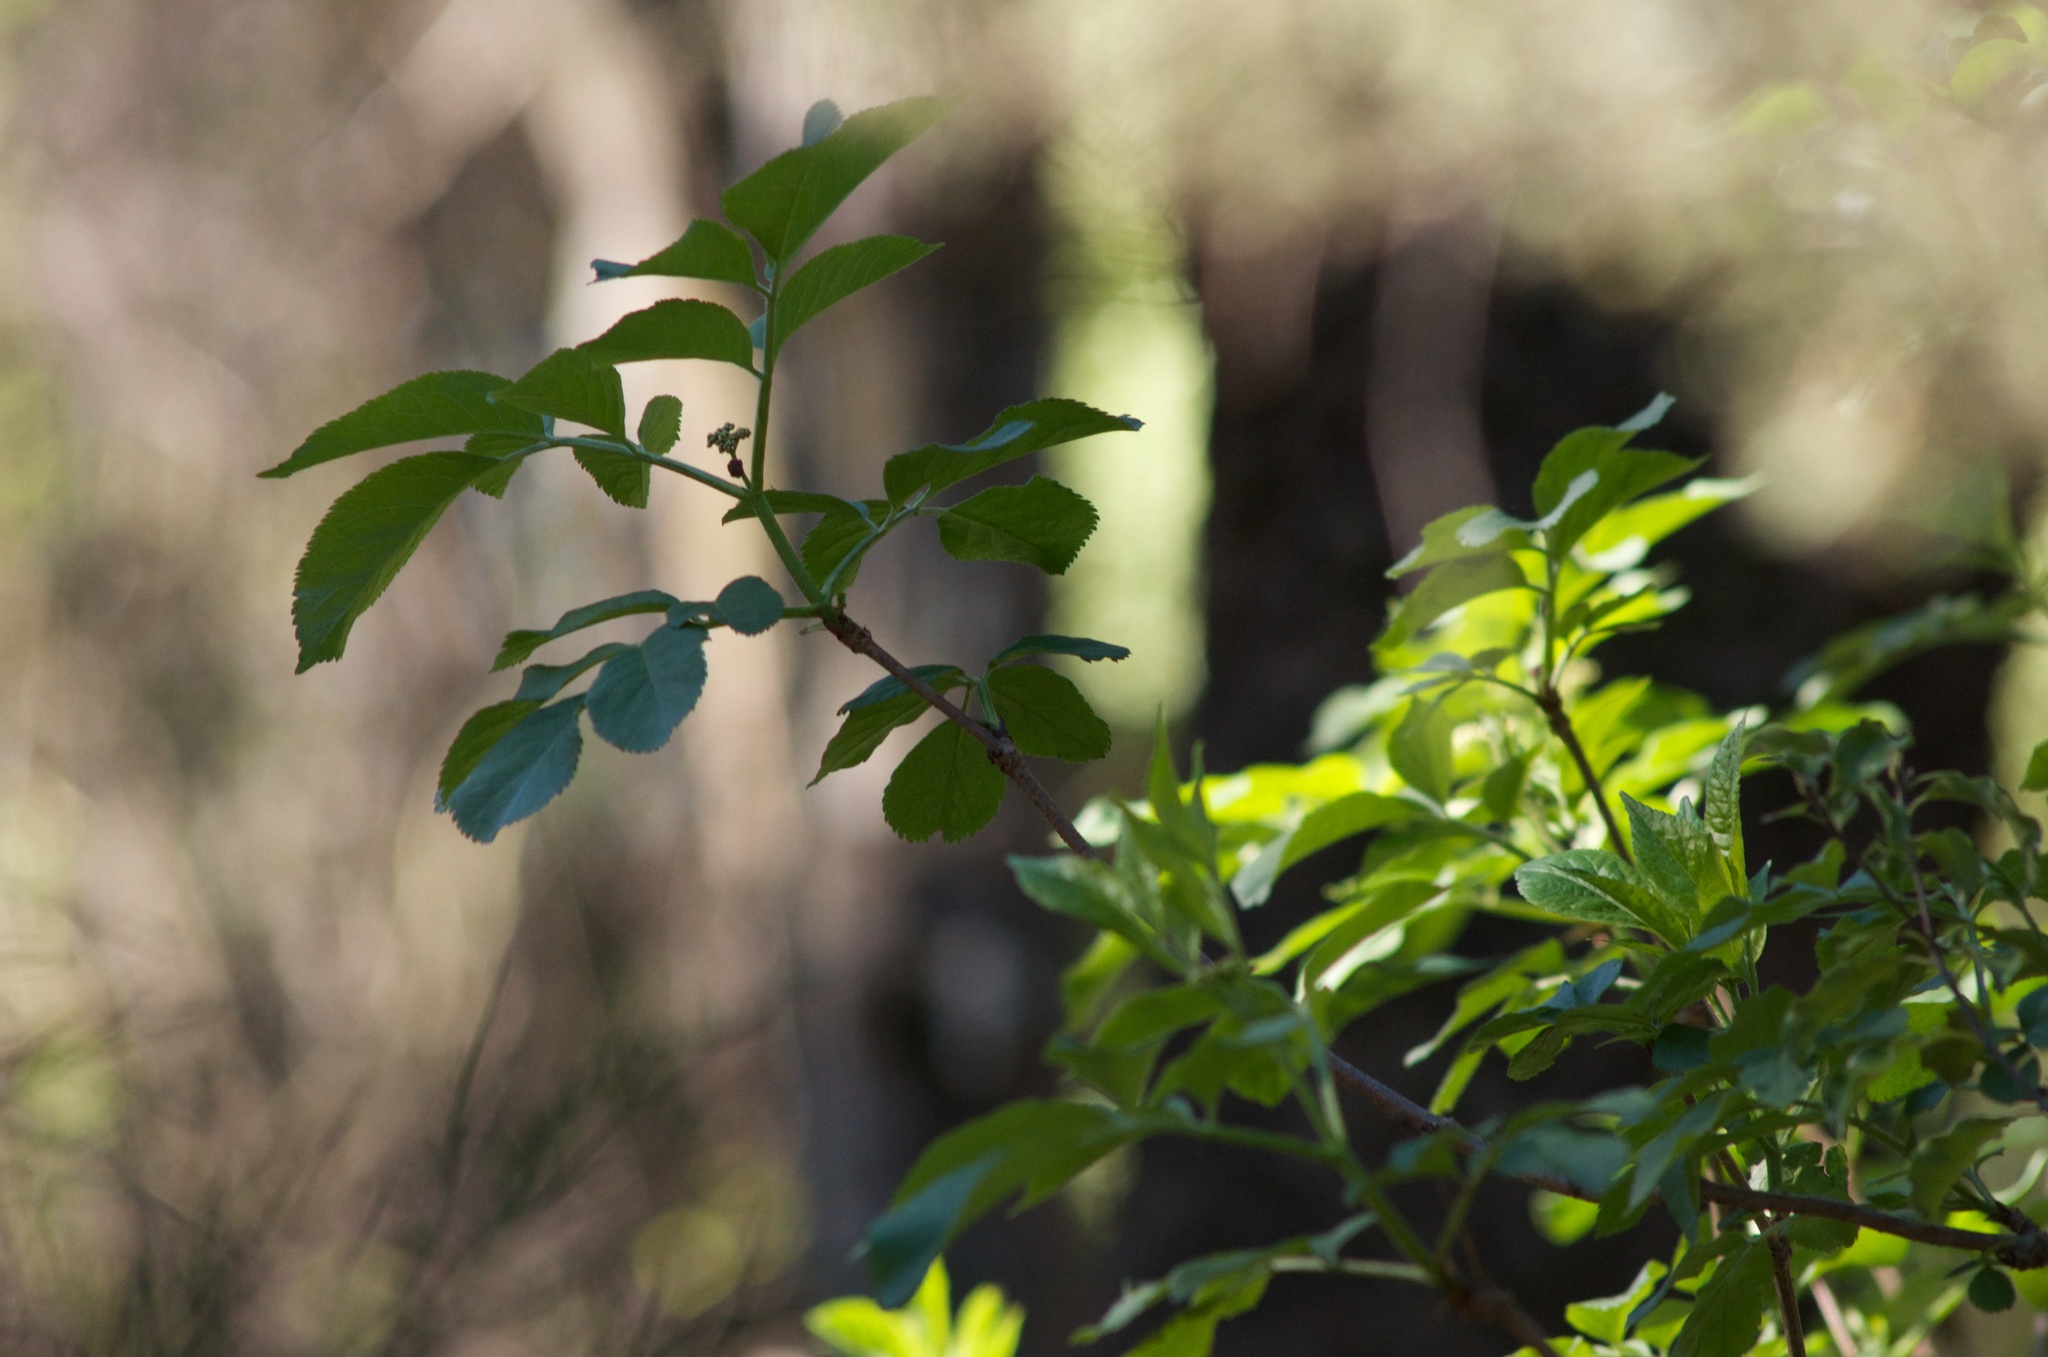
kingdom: Plantae
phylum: Tracheophyta
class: Magnoliopsida
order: Dipsacales
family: Viburnaceae
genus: Sambucus
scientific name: Sambucus nigra
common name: Elder
